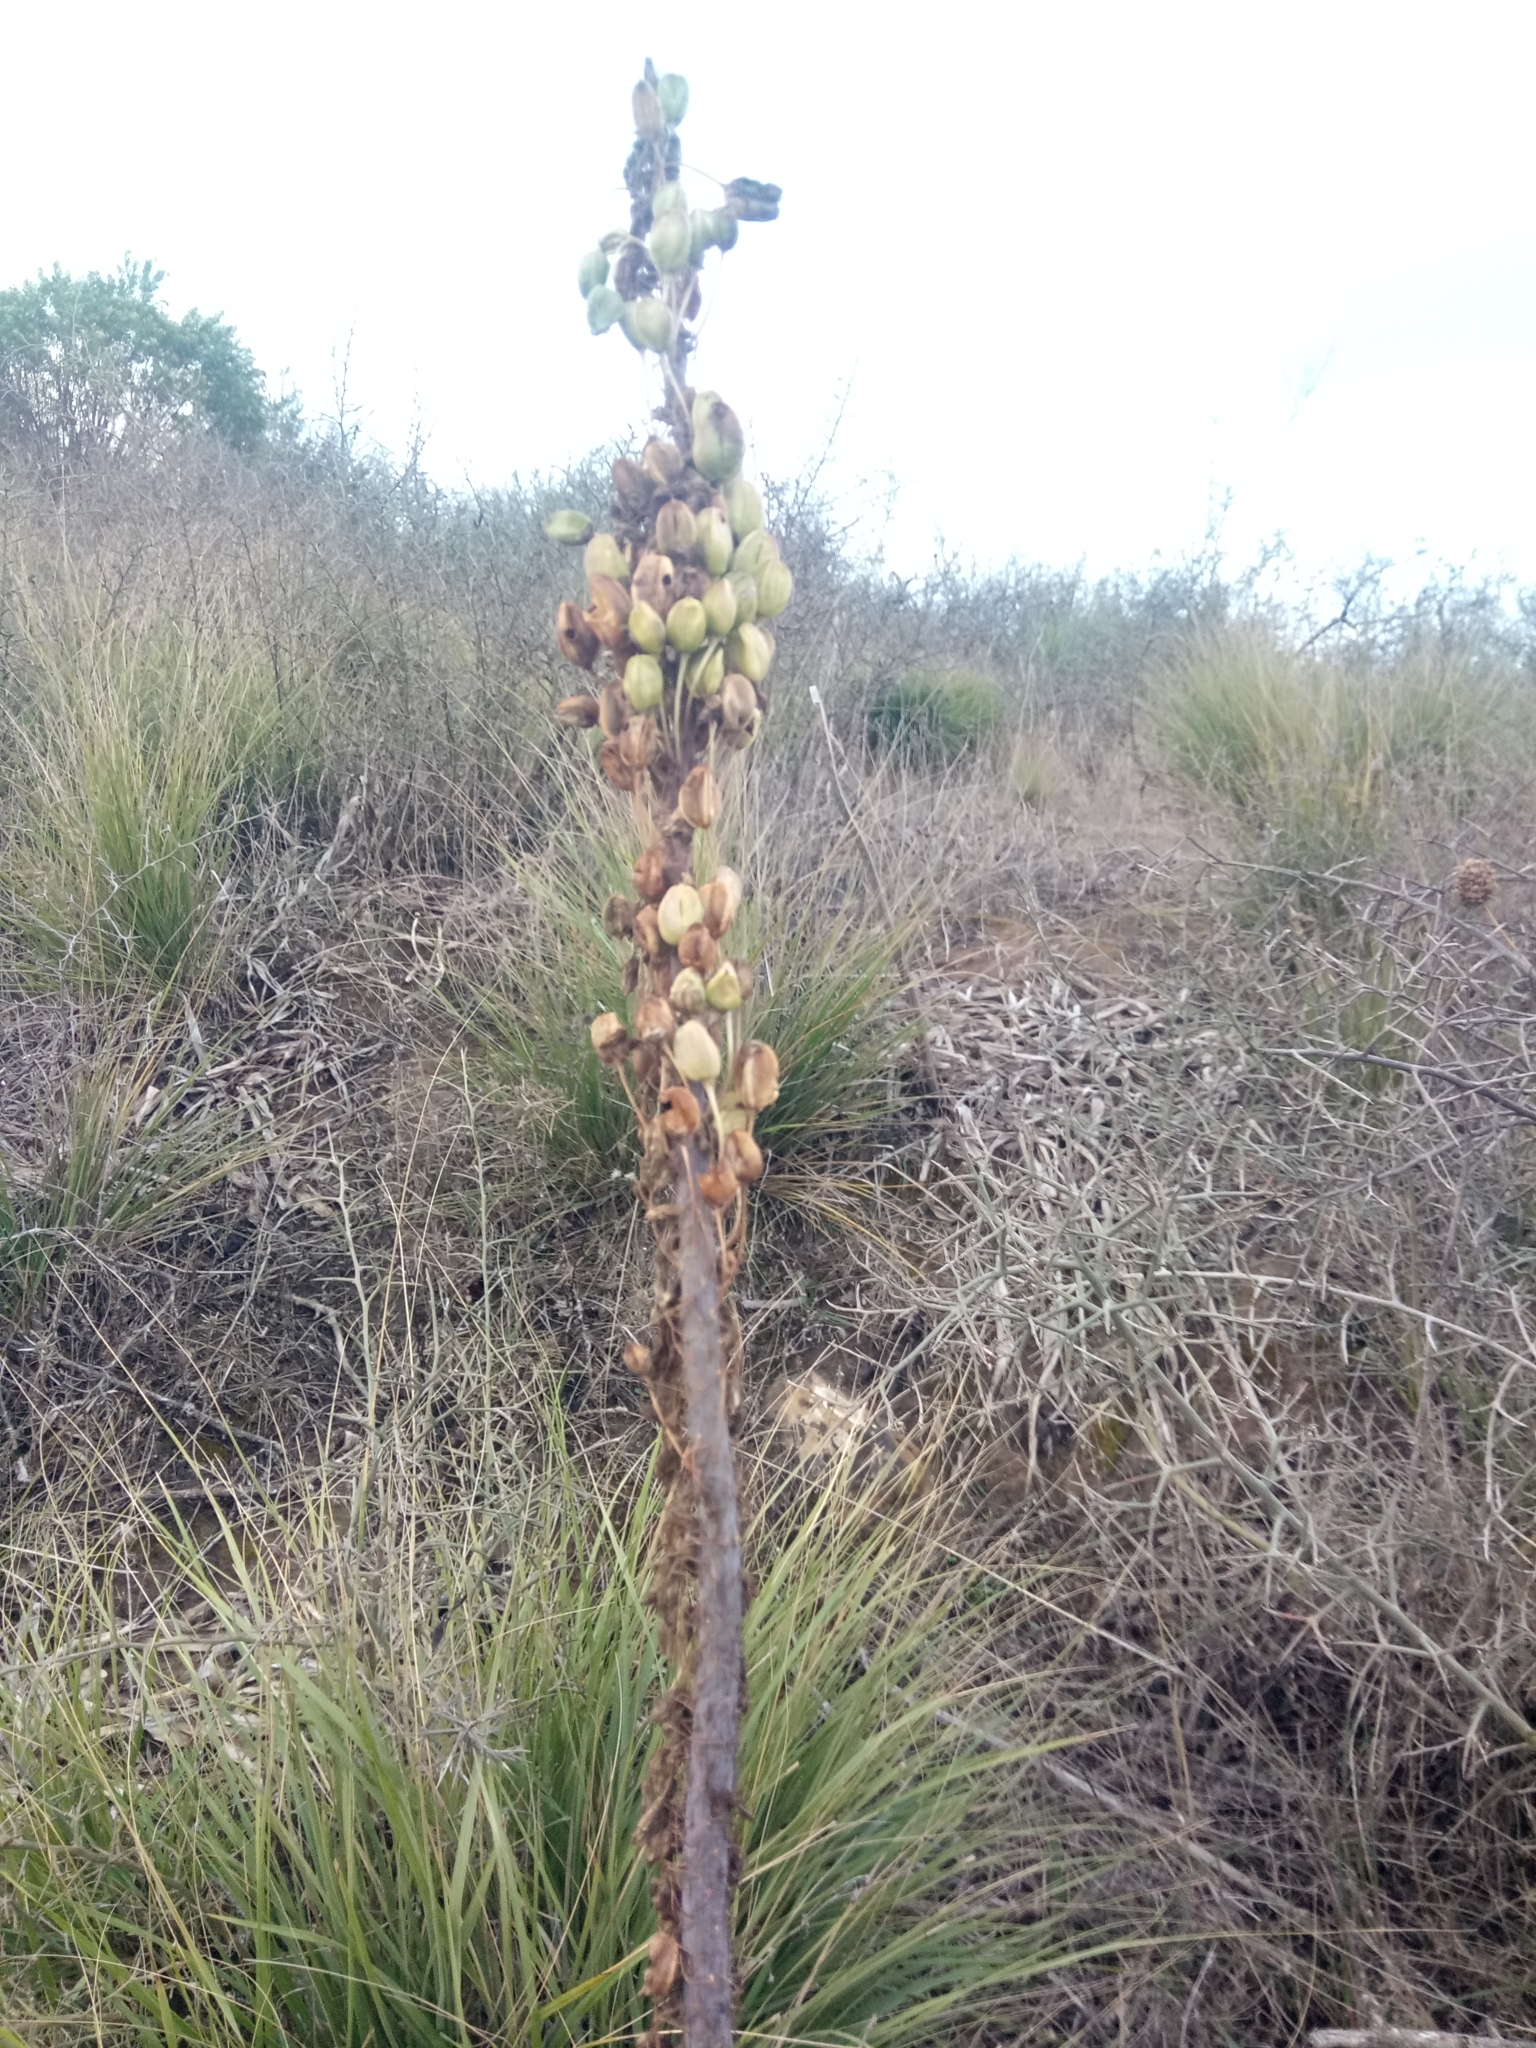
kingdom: Plantae
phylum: Tracheophyta
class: Liliopsida
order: Asparagales
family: Asparagaceae
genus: Drimia
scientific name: Drimia numidica
